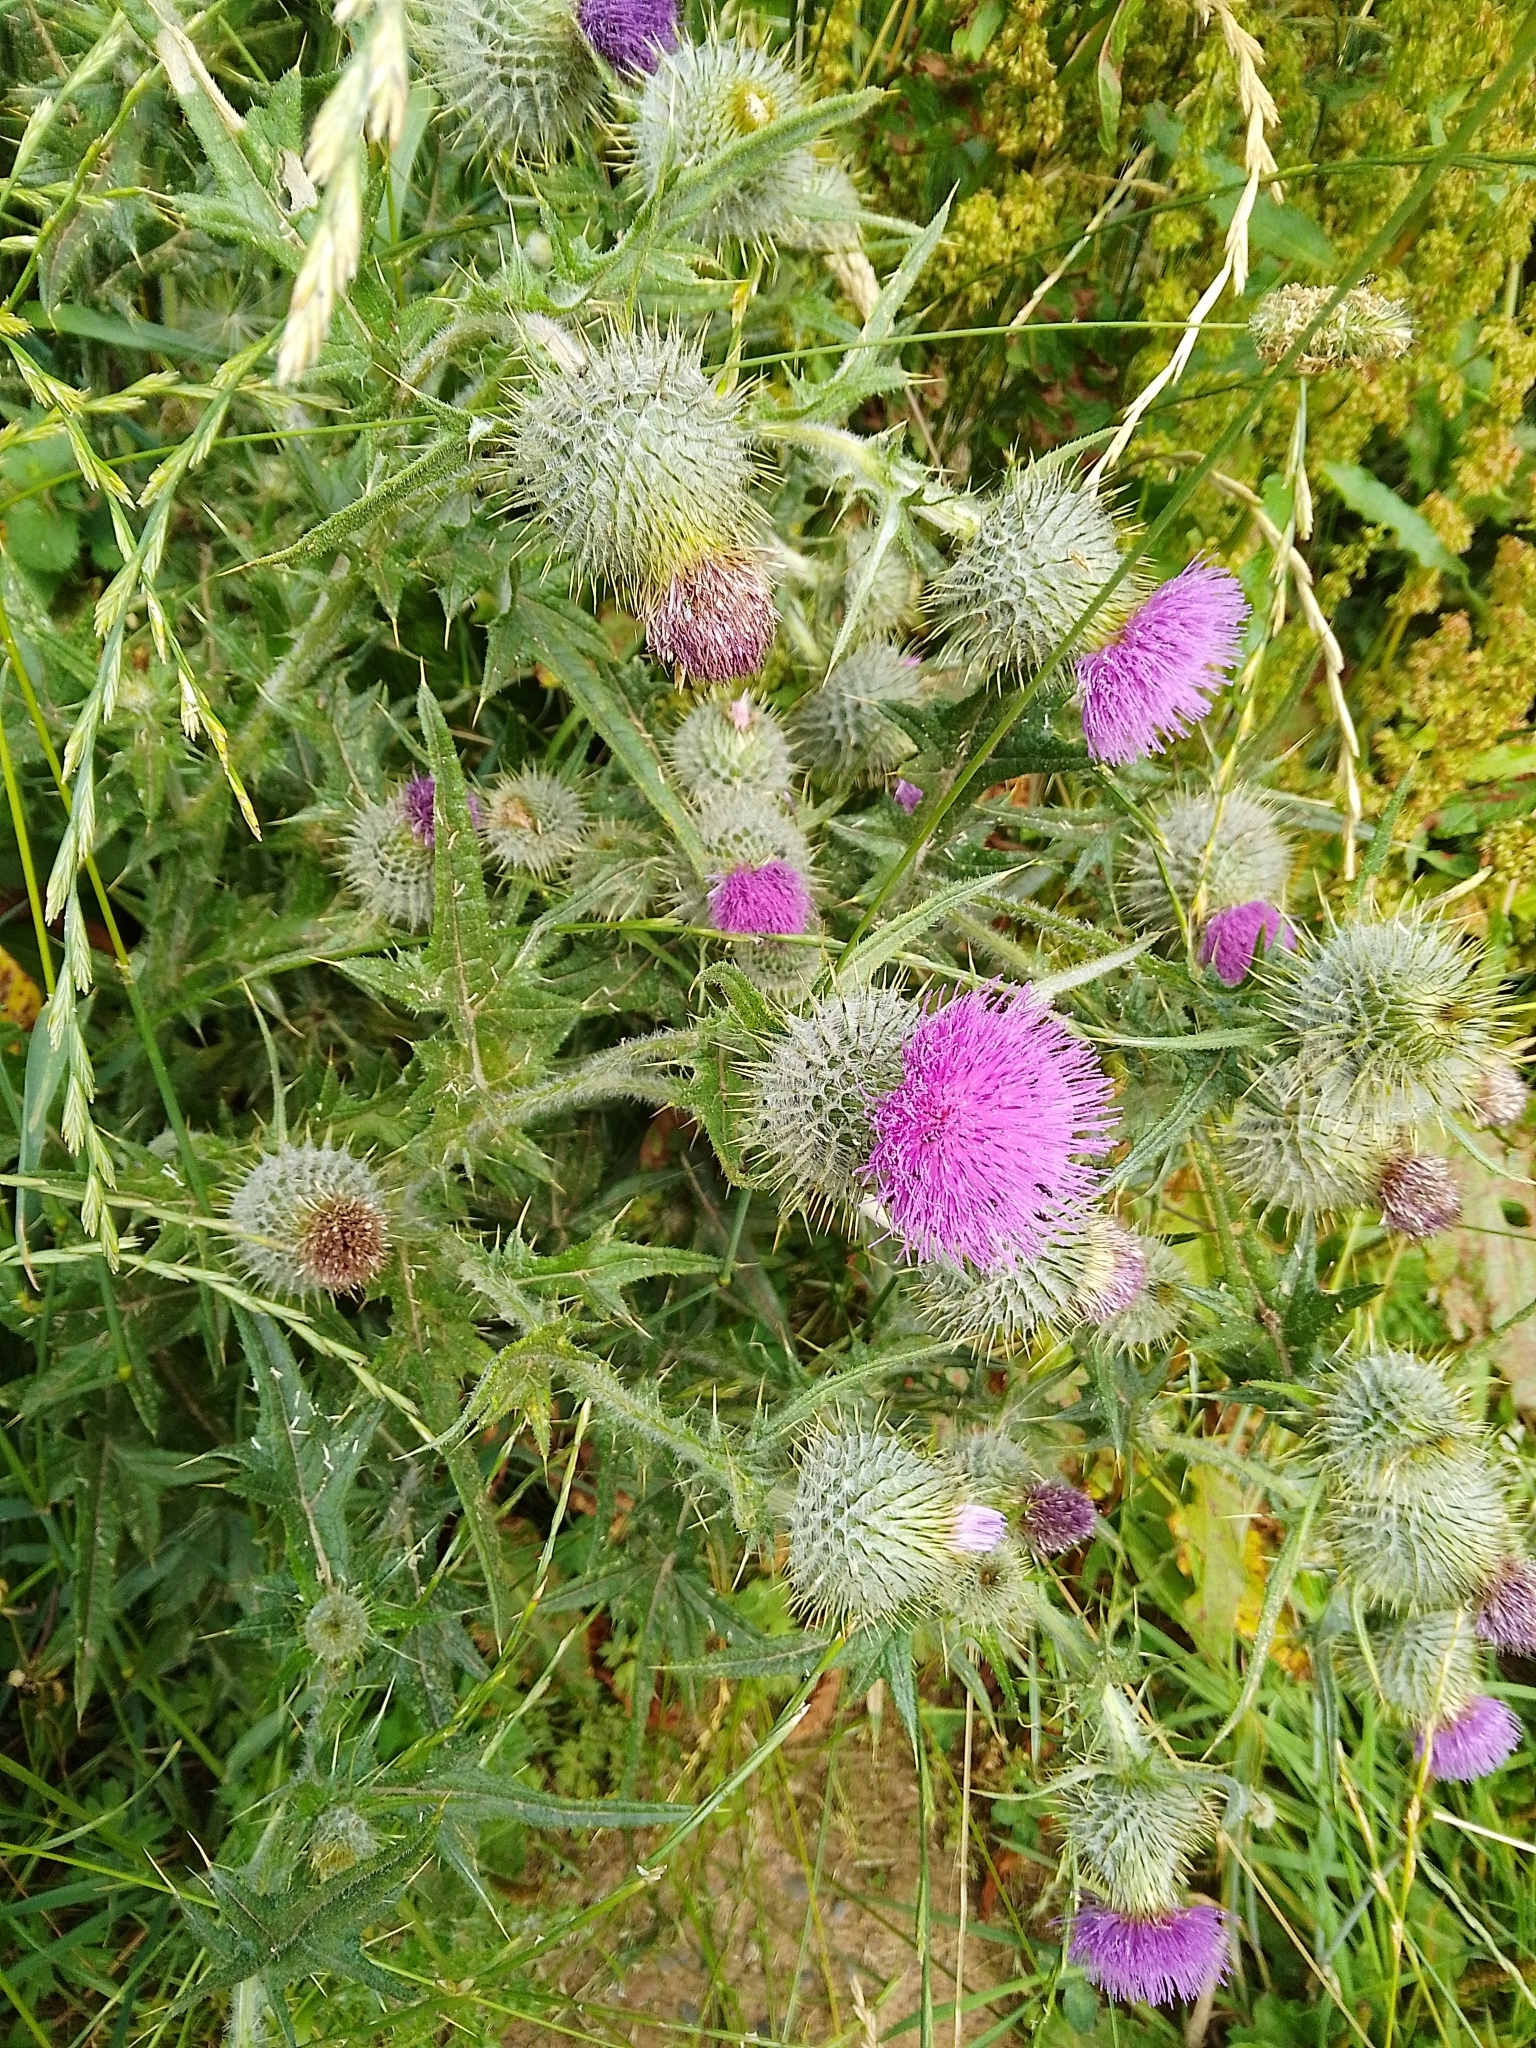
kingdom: Plantae
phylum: Tracheophyta
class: Magnoliopsida
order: Asterales
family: Asteraceae
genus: Cirsium
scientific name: Cirsium vulgare
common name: Bull thistle
